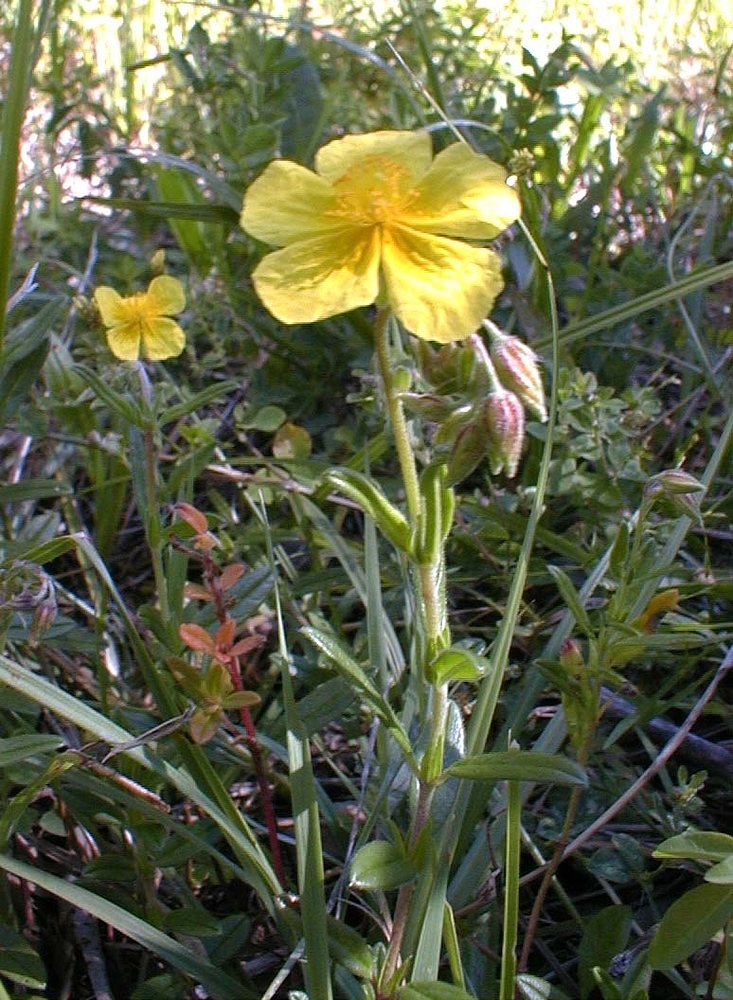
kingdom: Plantae
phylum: Tracheophyta
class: Magnoliopsida
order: Malvales
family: Cistaceae
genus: Helianthemum
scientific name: Helianthemum nummularium
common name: Common rock-rose
